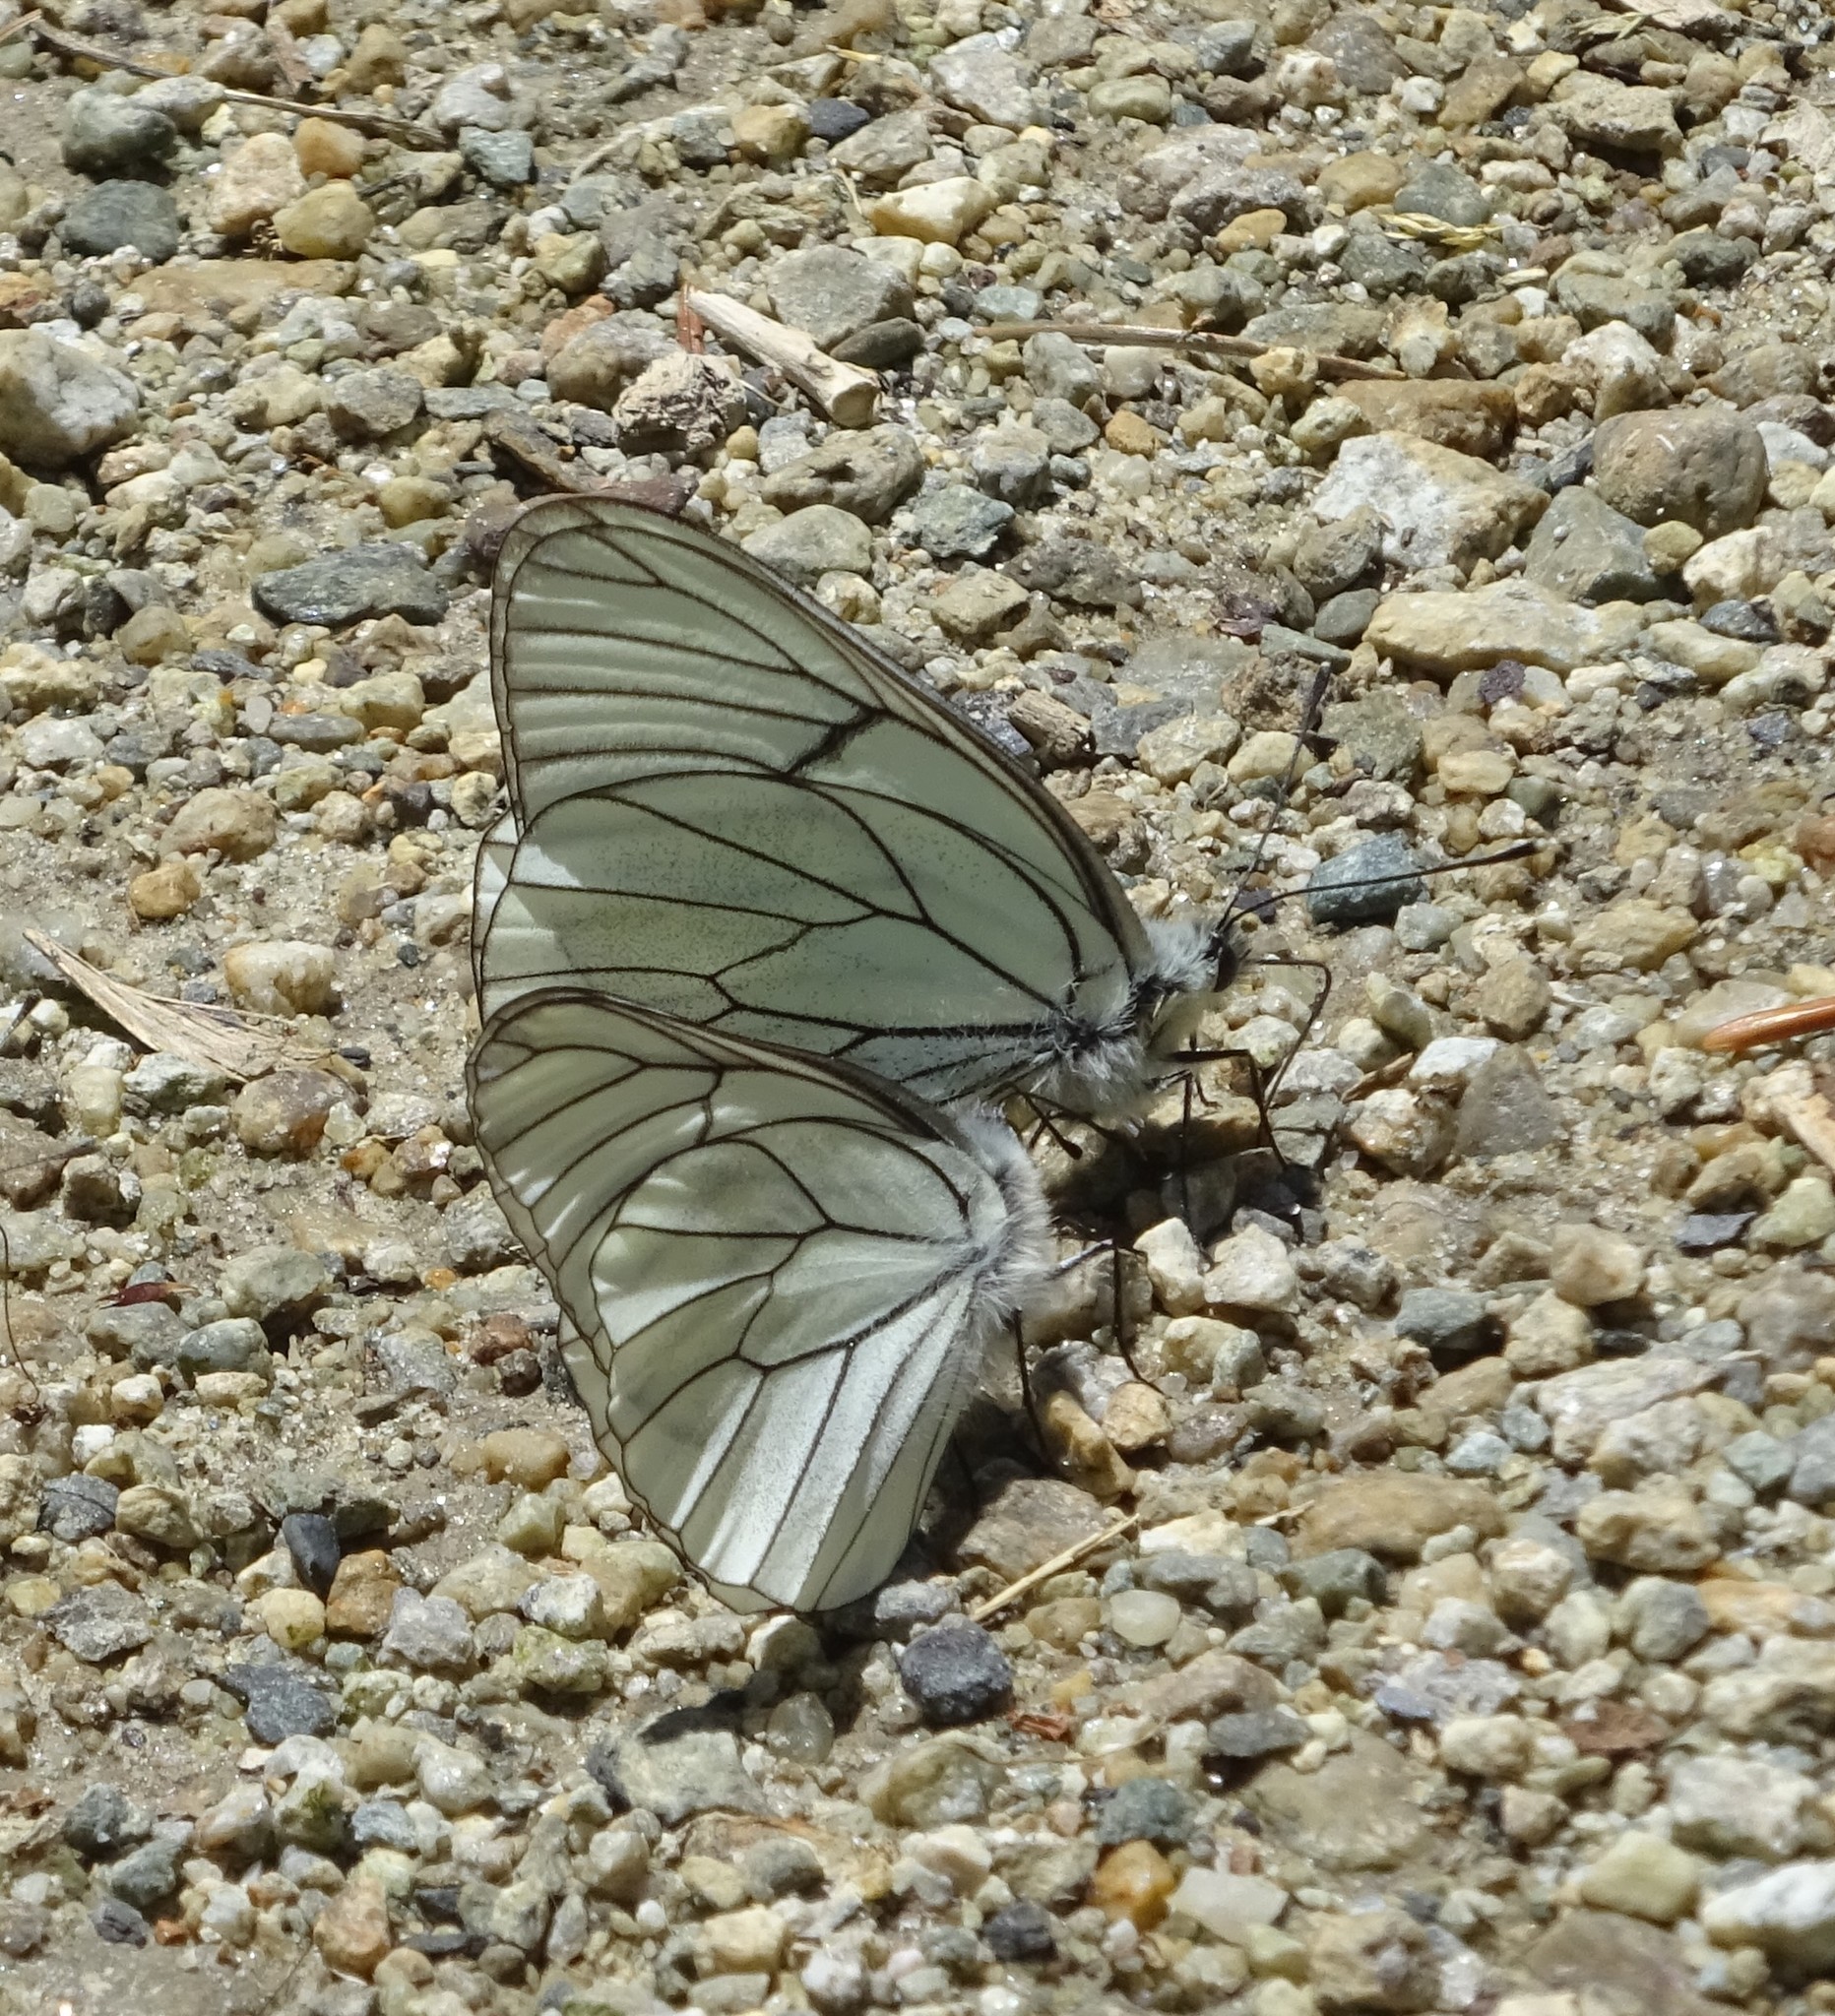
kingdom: Animalia
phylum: Arthropoda
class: Insecta
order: Lepidoptera
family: Pieridae
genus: Aporia
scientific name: Aporia crataegi
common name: Black-veined white
